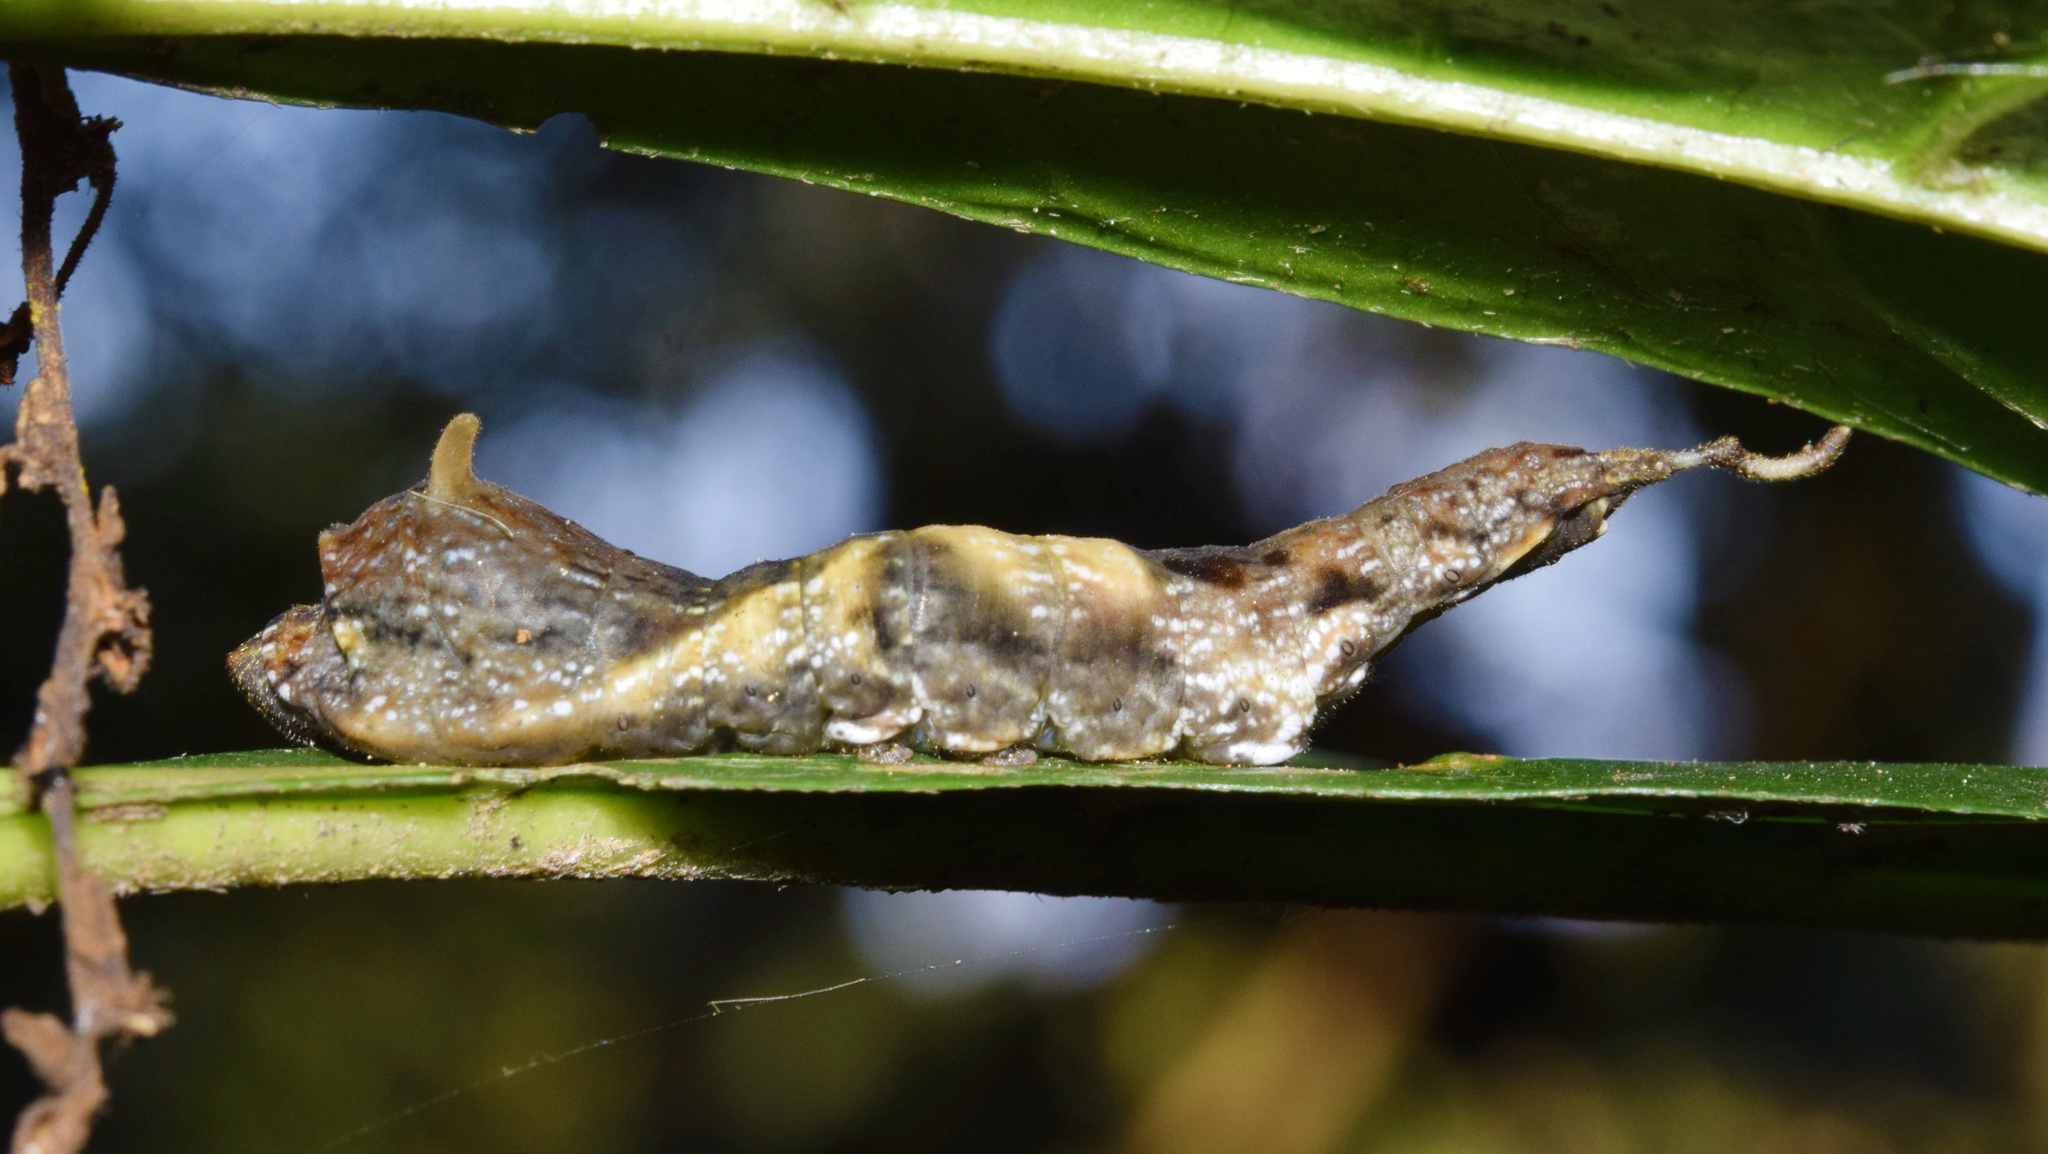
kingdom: Animalia
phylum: Arthropoda
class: Insecta
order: Lepidoptera
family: Drepanidae
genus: Negera
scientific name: Negera natalensis
